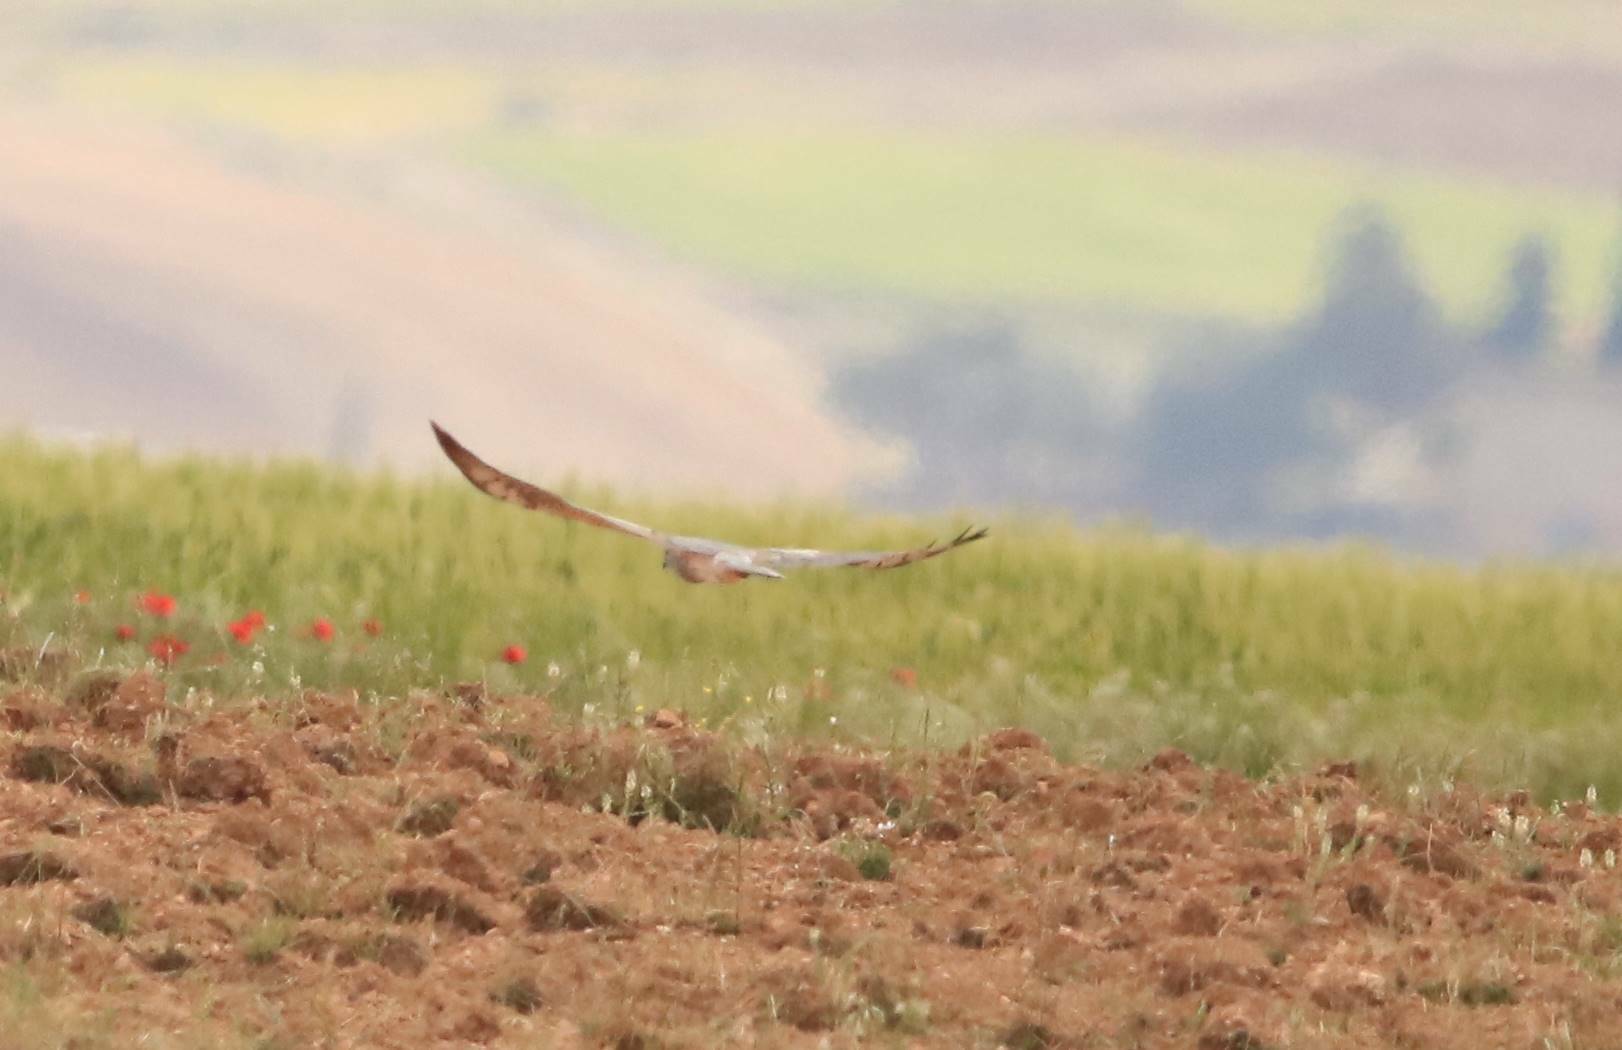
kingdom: Animalia
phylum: Chordata
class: Aves
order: Accipitriformes
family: Accipitridae
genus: Circus
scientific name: Circus pygargus
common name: Montagu's harrier
